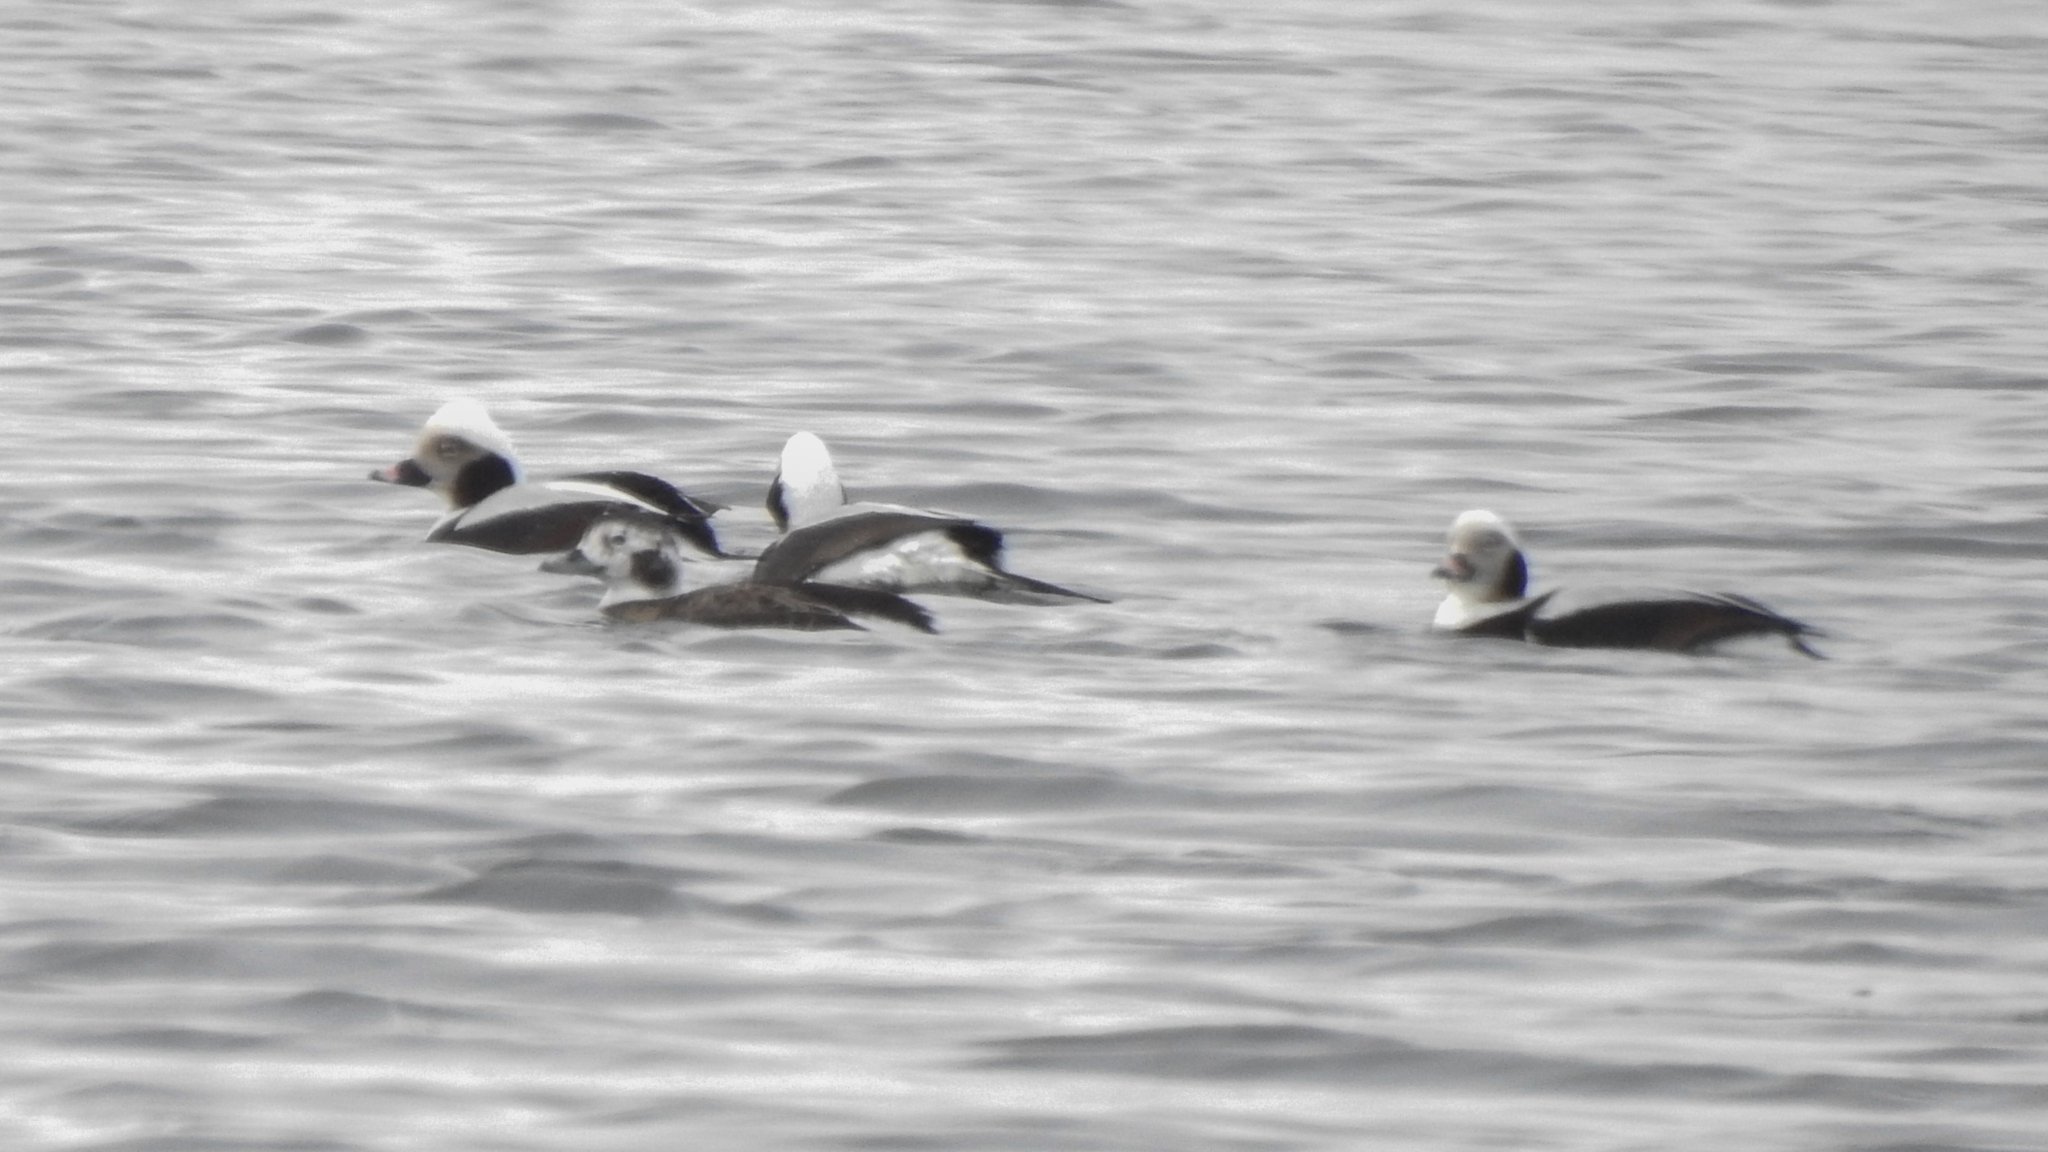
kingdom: Animalia
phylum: Chordata
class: Aves
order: Anseriformes
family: Anatidae
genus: Clangula
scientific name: Clangula hyemalis
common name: Long-tailed duck
